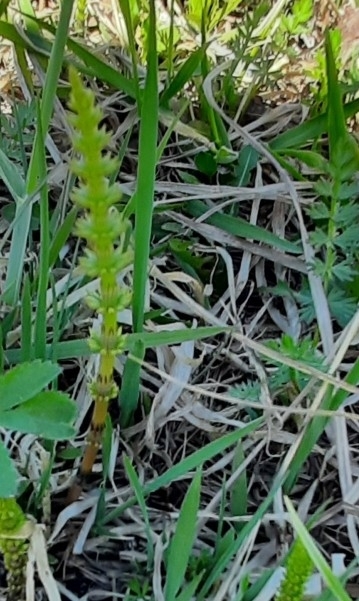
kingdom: Plantae
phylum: Tracheophyta
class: Polypodiopsida
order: Equisetales
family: Equisetaceae
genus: Equisetum
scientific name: Equisetum pratense
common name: Meadow horsetail
